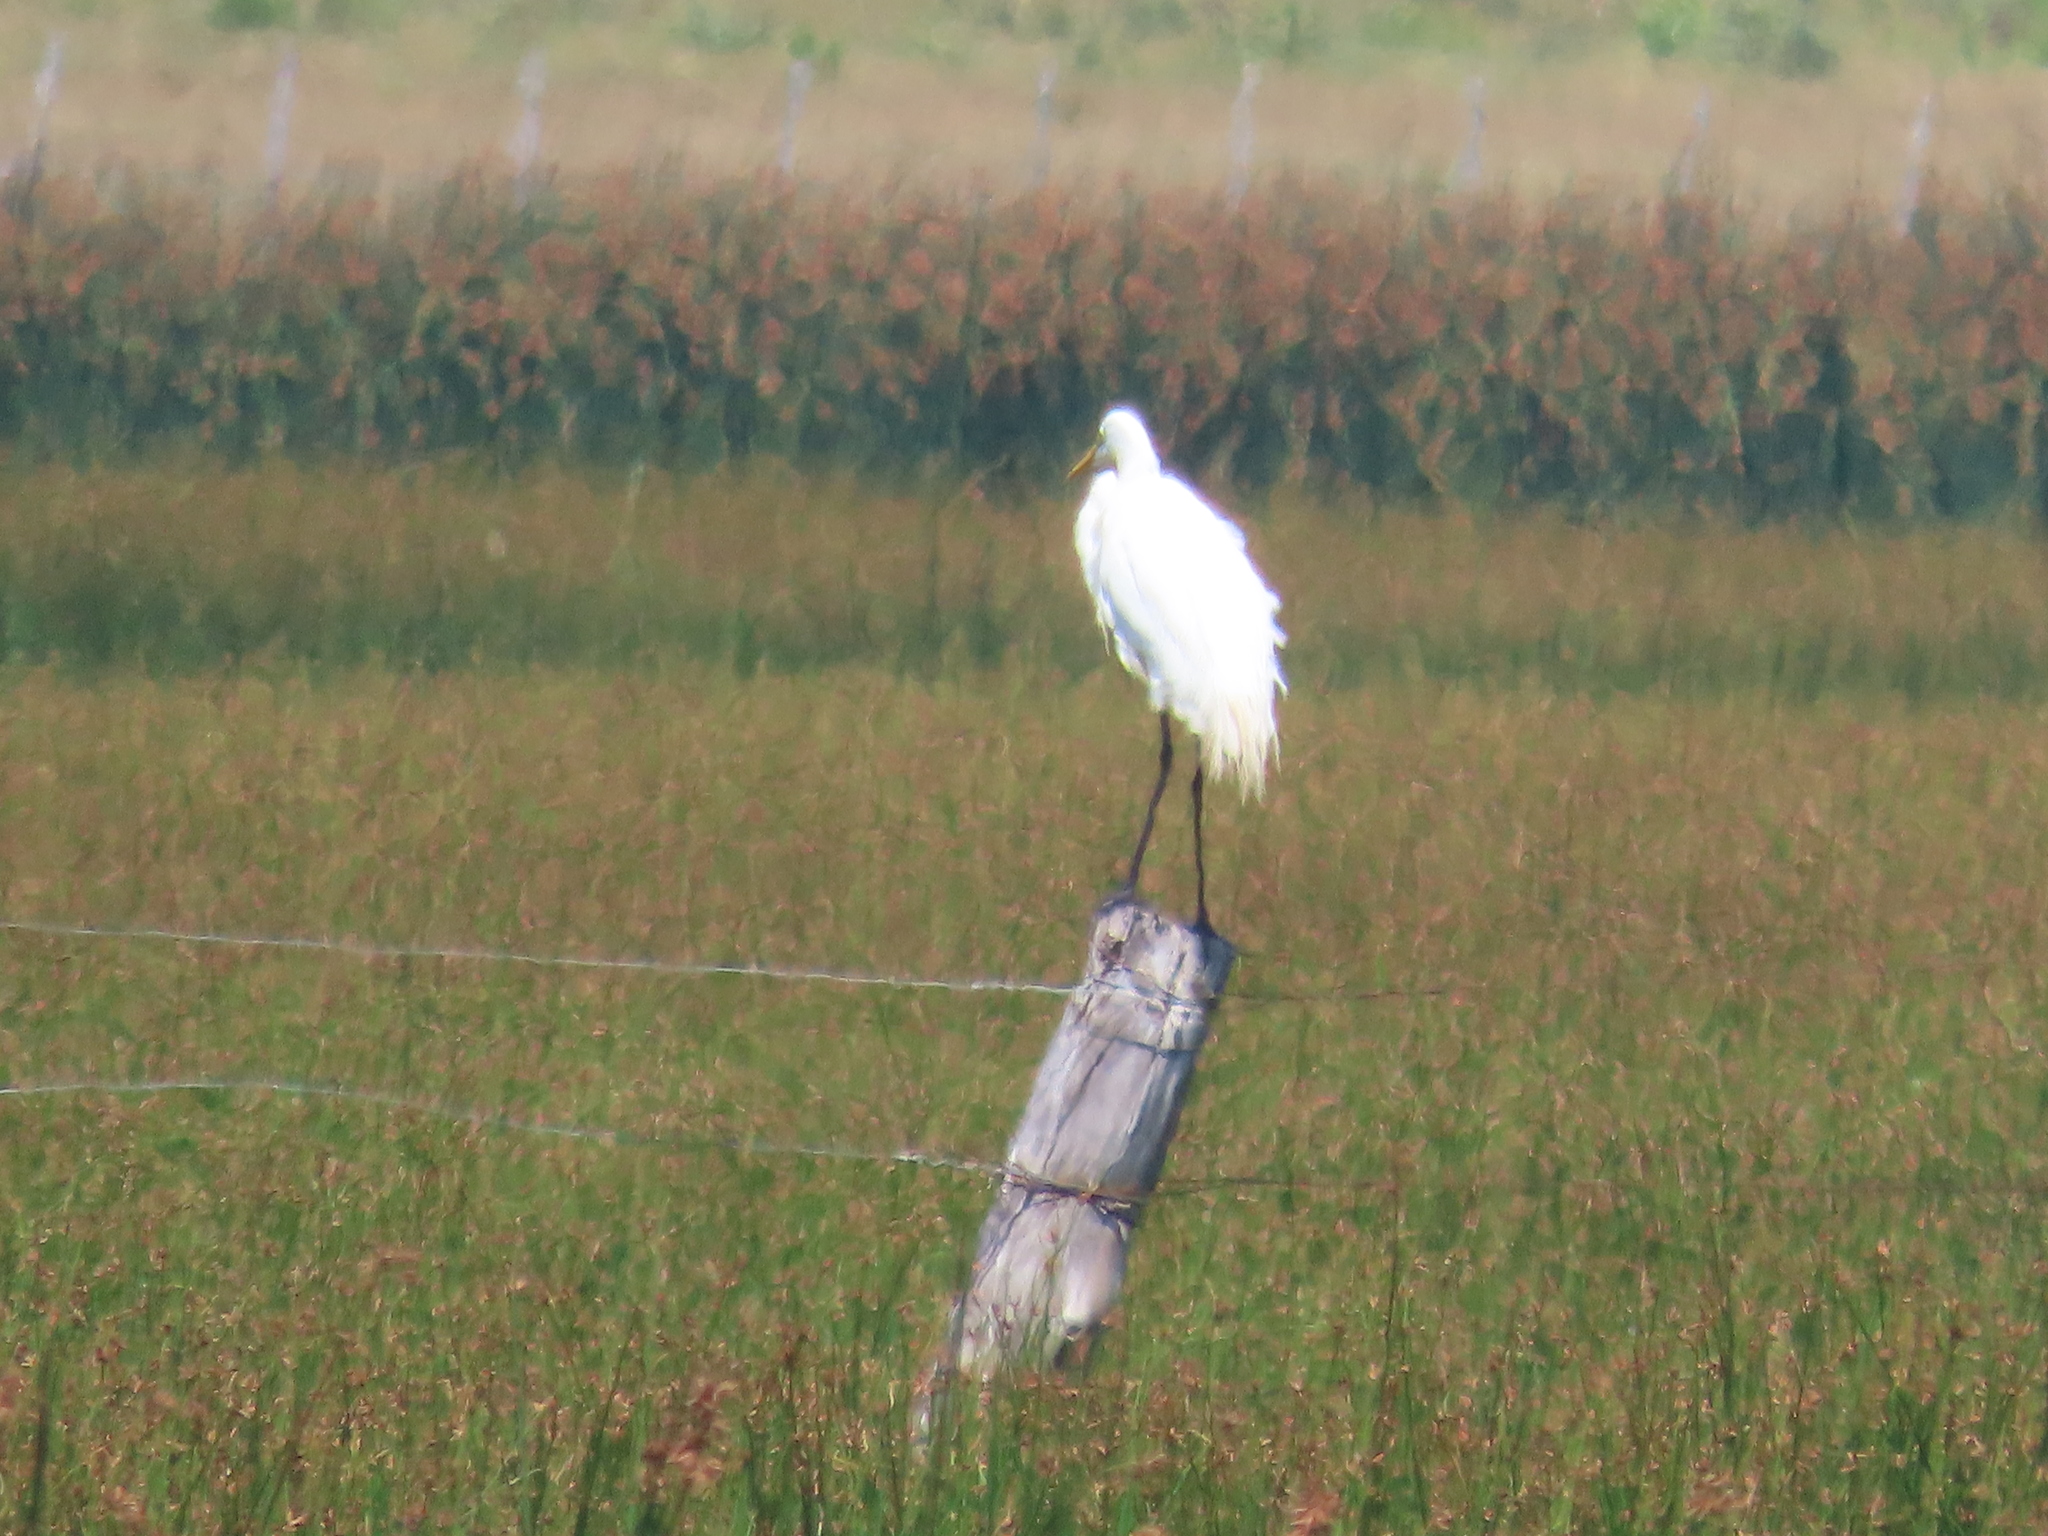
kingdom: Animalia
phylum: Chordata
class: Aves
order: Pelecaniformes
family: Ardeidae
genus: Ardea
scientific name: Ardea alba
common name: Great egret
